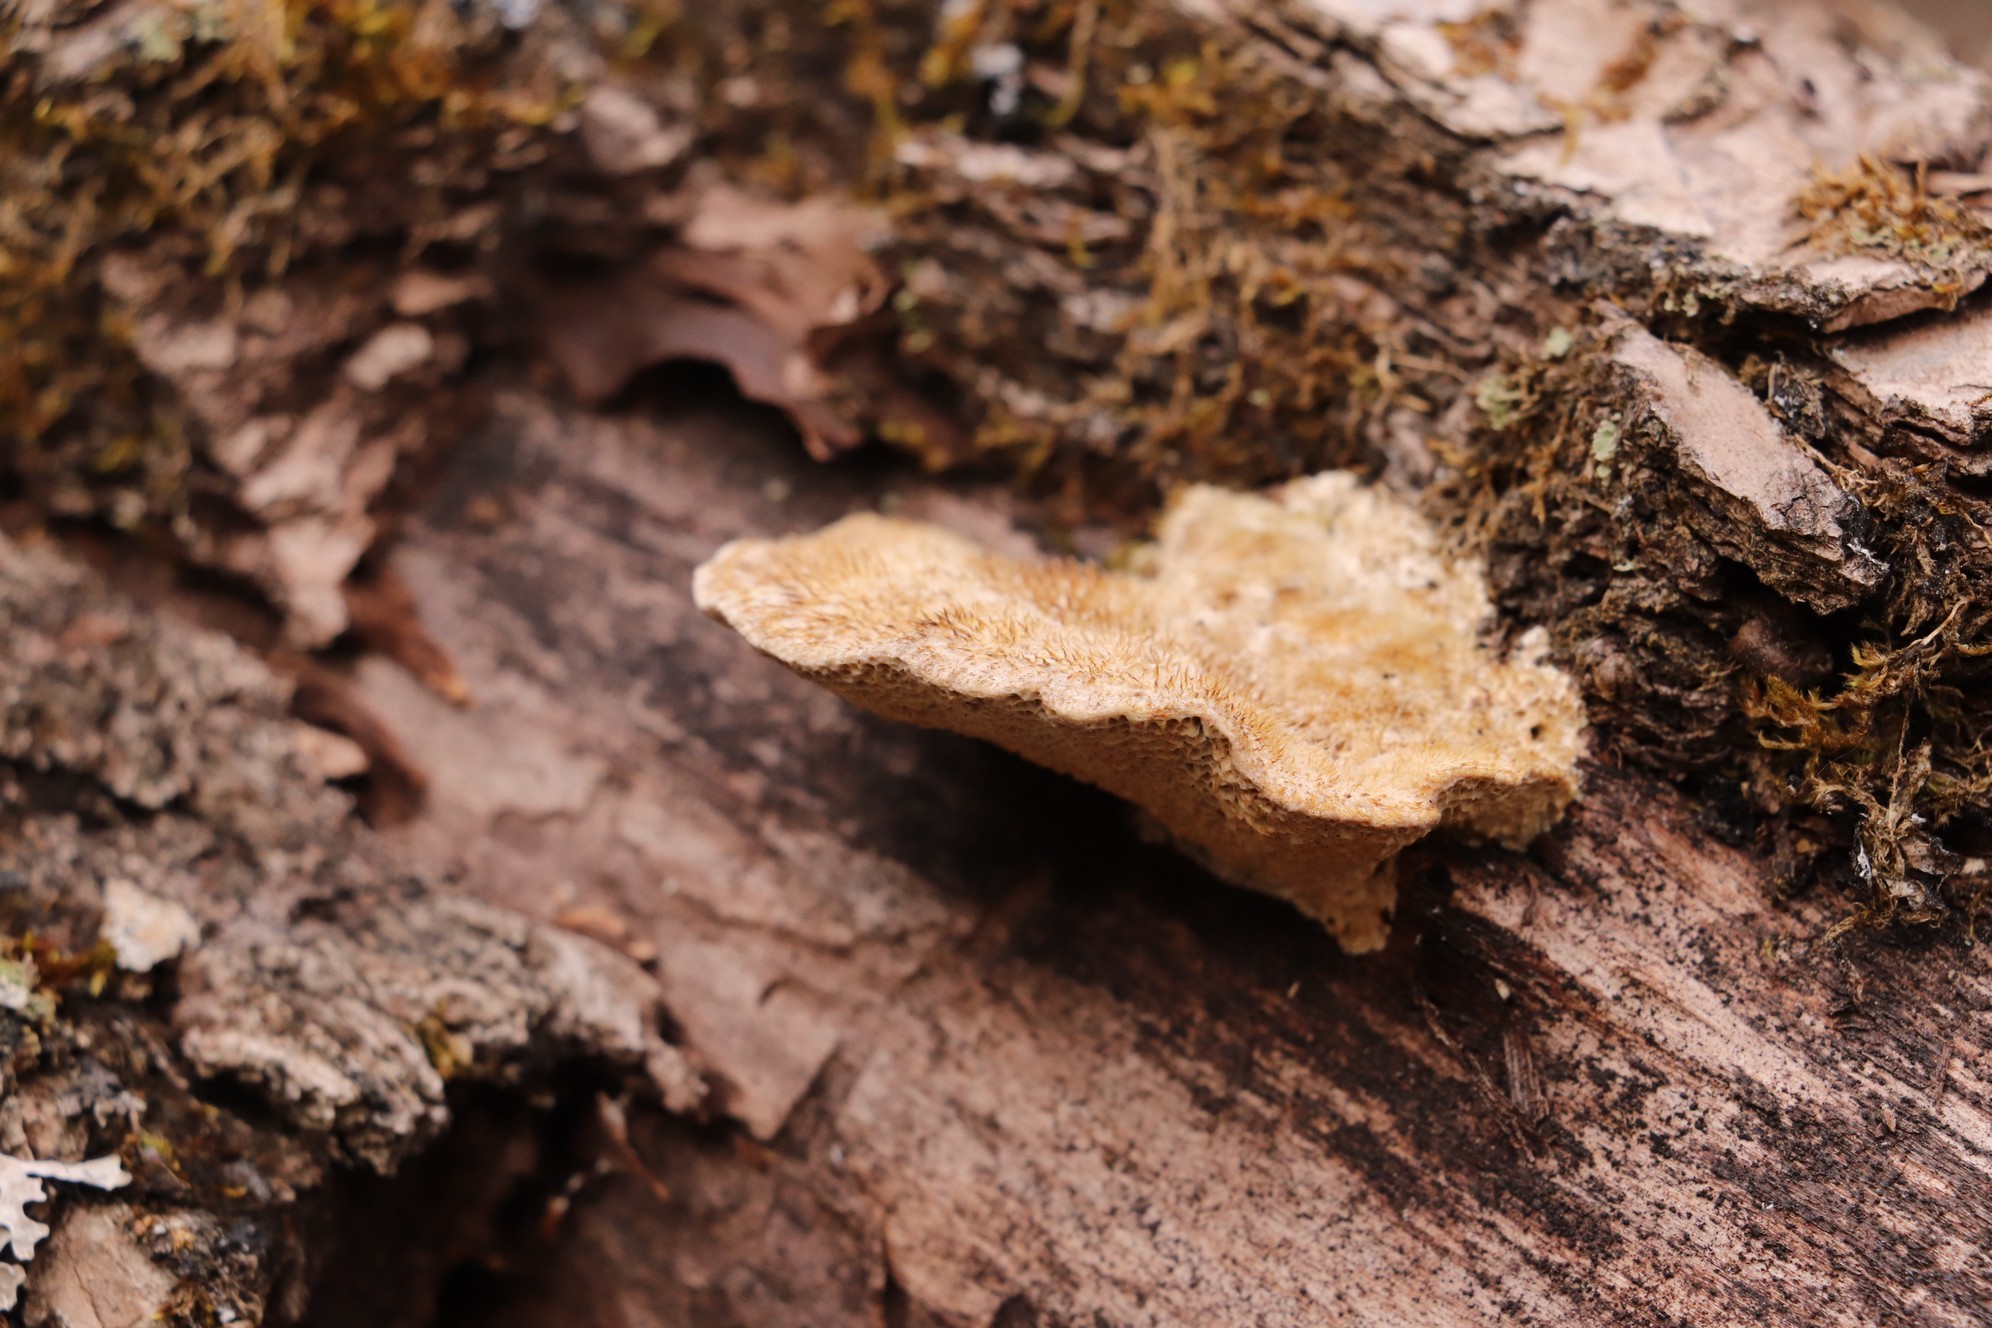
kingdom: Fungi
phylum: Basidiomycota
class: Agaricomycetes
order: Polyporales
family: Polyporaceae
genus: Trametes
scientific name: Trametes trogii
